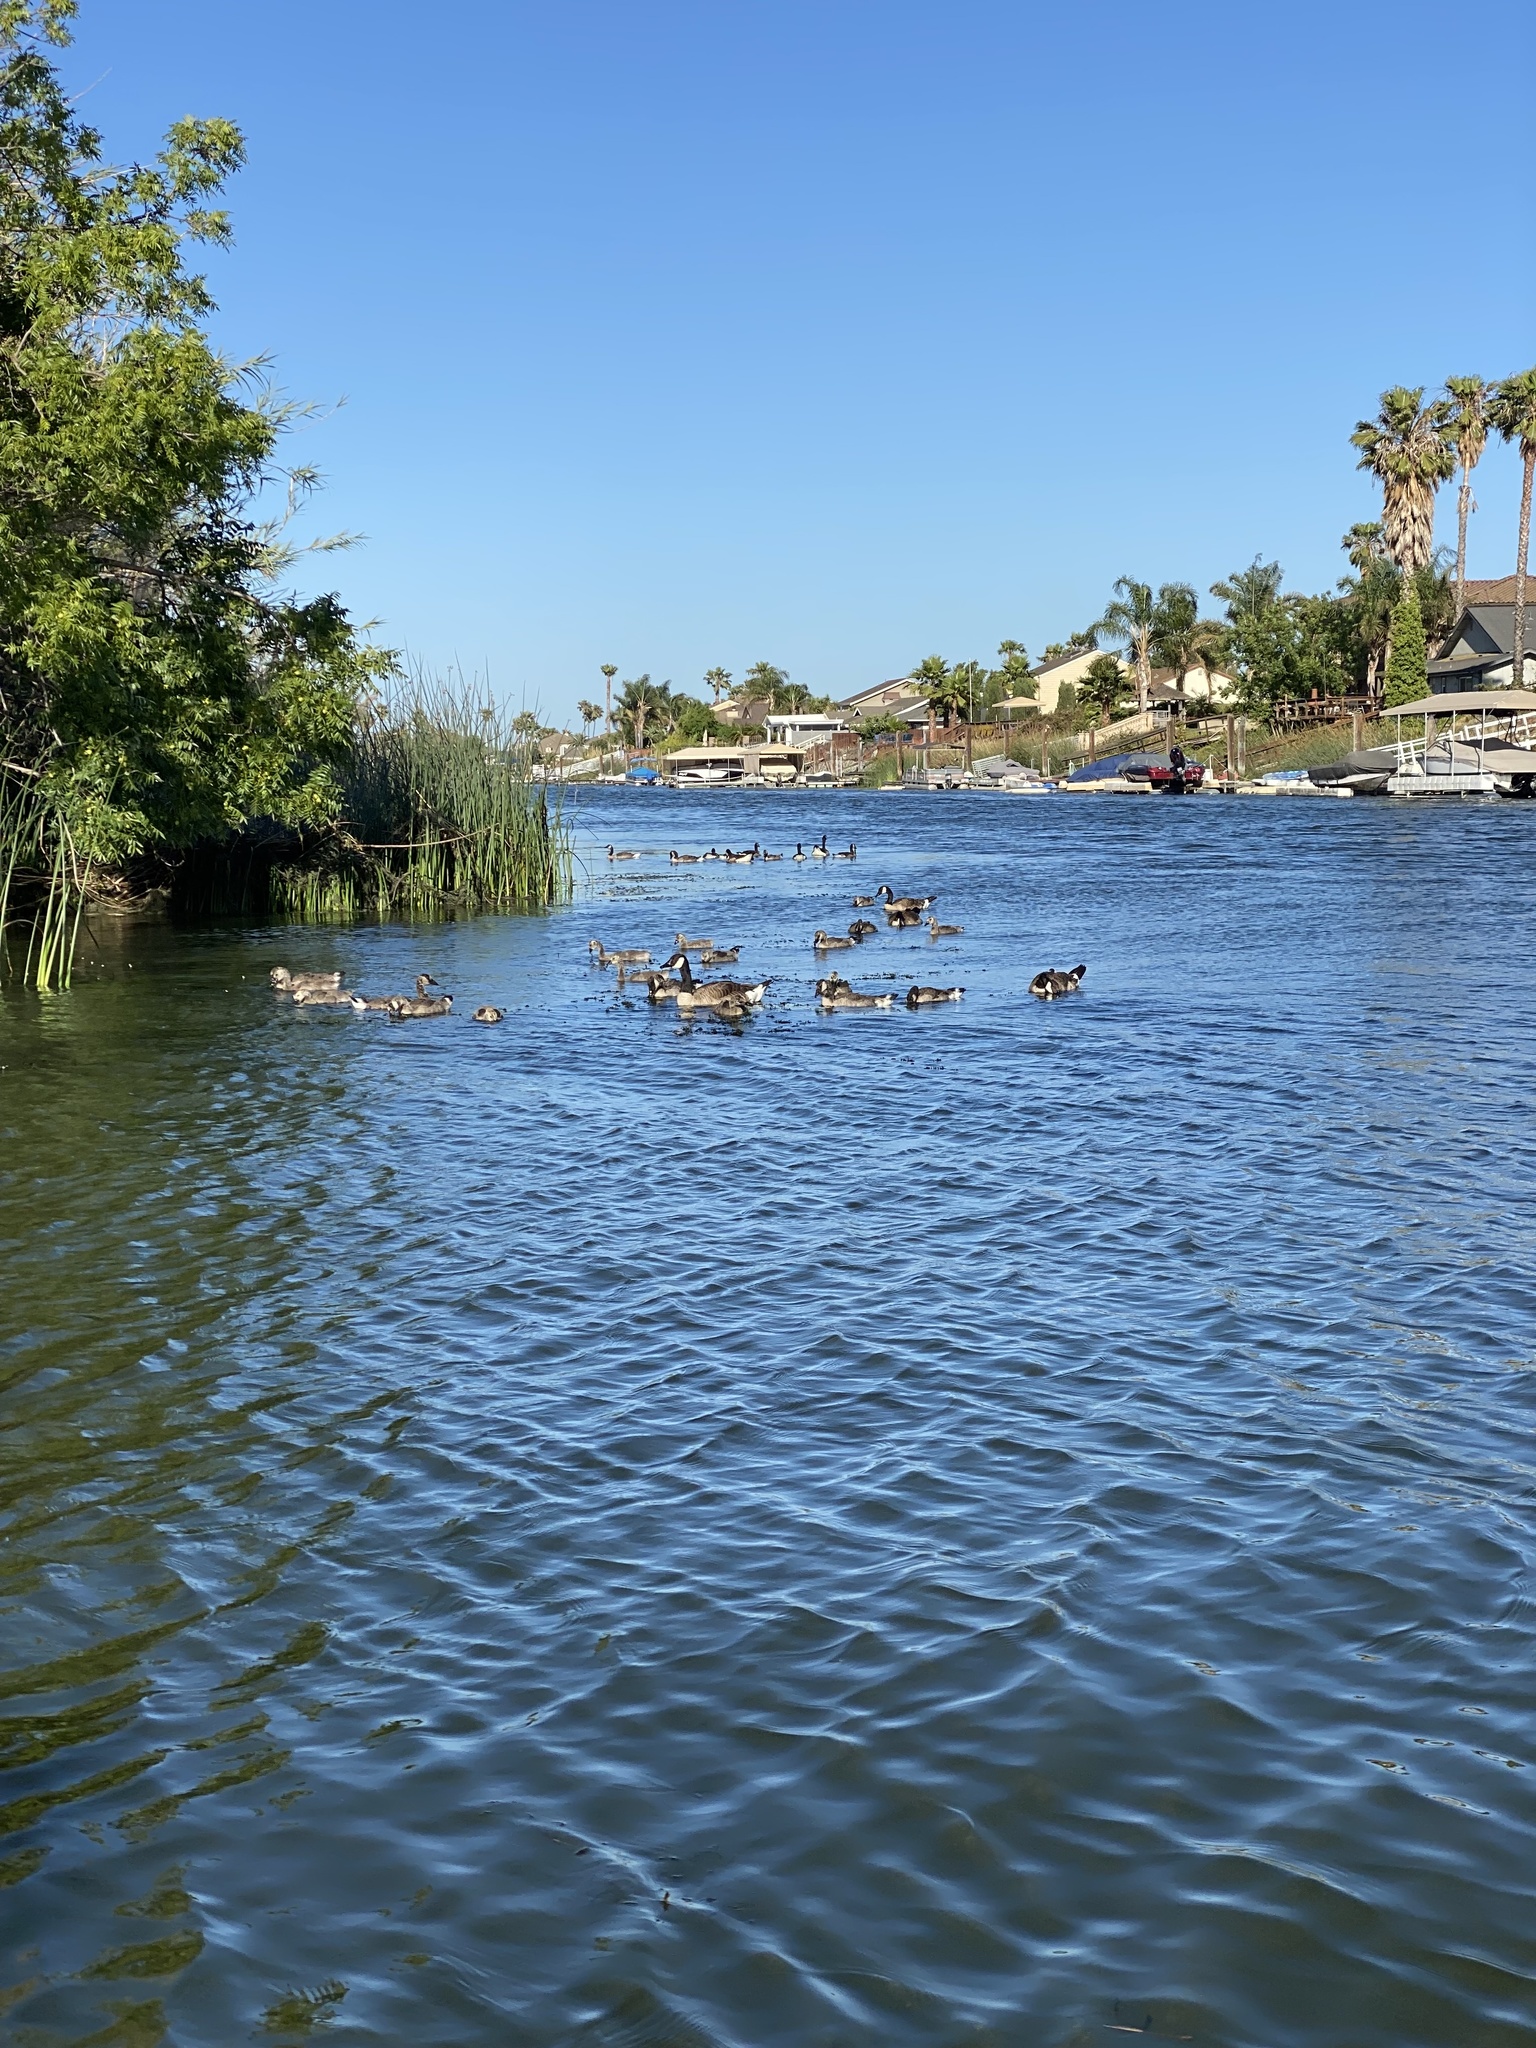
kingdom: Animalia
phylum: Chordata
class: Aves
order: Anseriformes
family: Anatidae
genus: Branta
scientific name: Branta canadensis
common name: Canada goose
